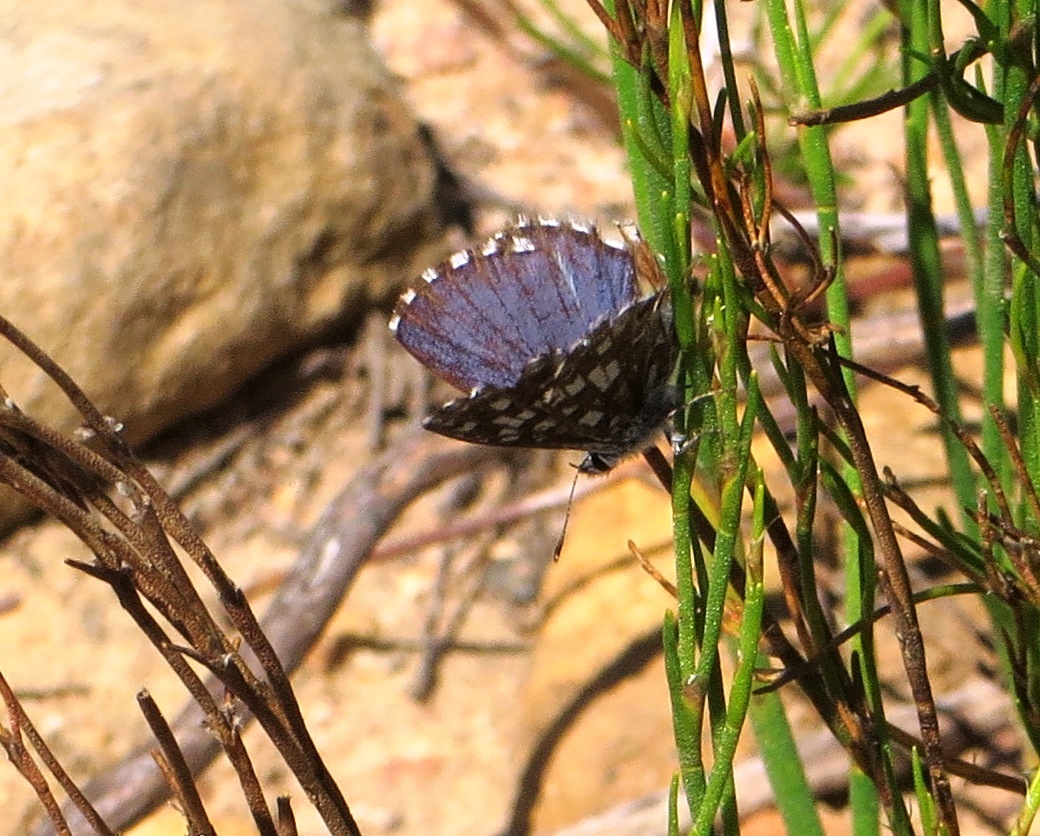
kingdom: Animalia
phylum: Arthropoda
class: Insecta
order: Lepidoptera
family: Lycaenidae
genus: Tarucus
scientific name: Tarucus thespis
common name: Vivid dotted blue
